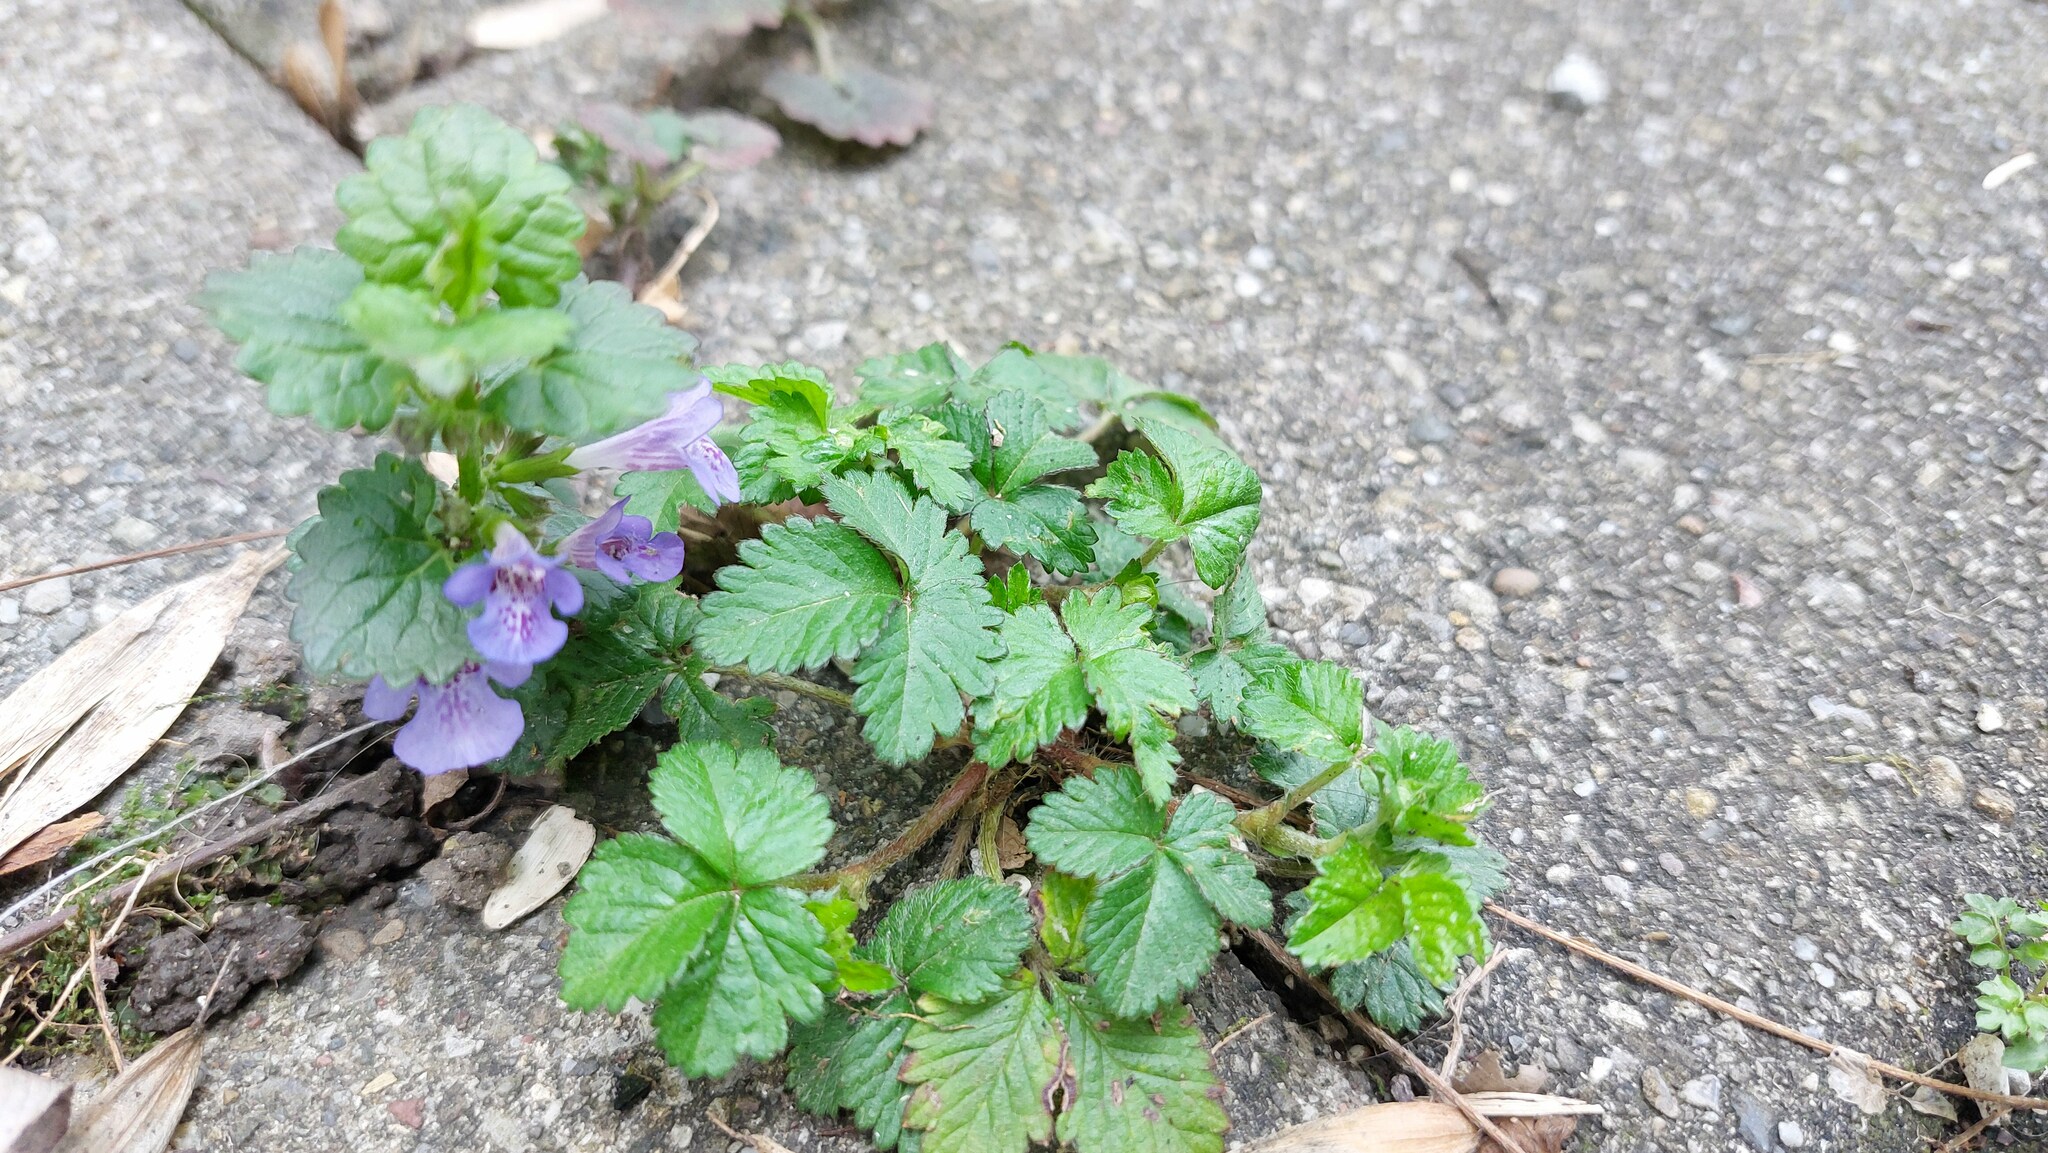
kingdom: Plantae
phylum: Tracheophyta
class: Magnoliopsida
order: Rosales
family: Rosaceae
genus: Potentilla
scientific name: Potentilla indica
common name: Yellow-flowered strawberry
